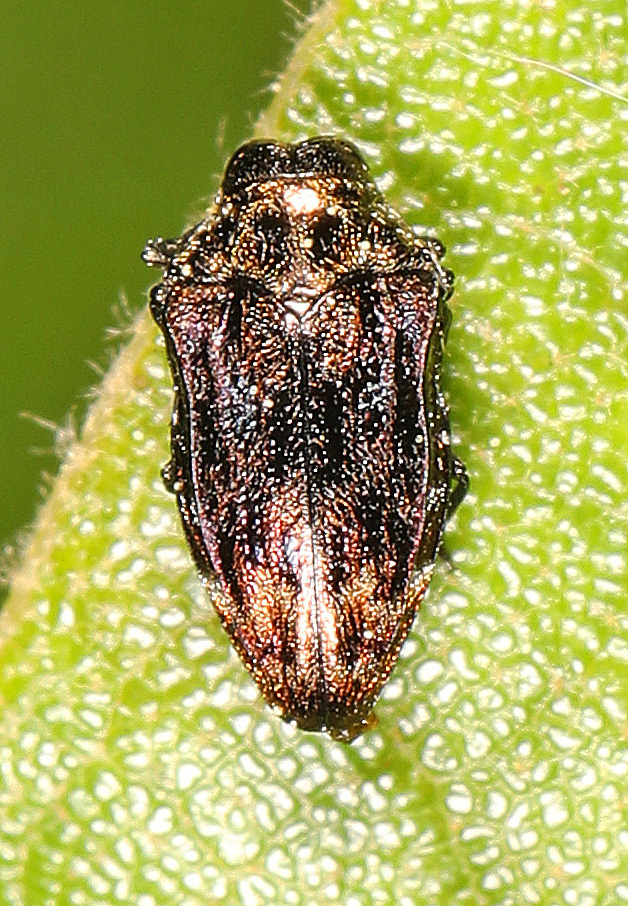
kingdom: Animalia
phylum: Arthropoda
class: Insecta
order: Coleoptera
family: Buprestidae
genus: Brachys
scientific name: Brachys aerosus
